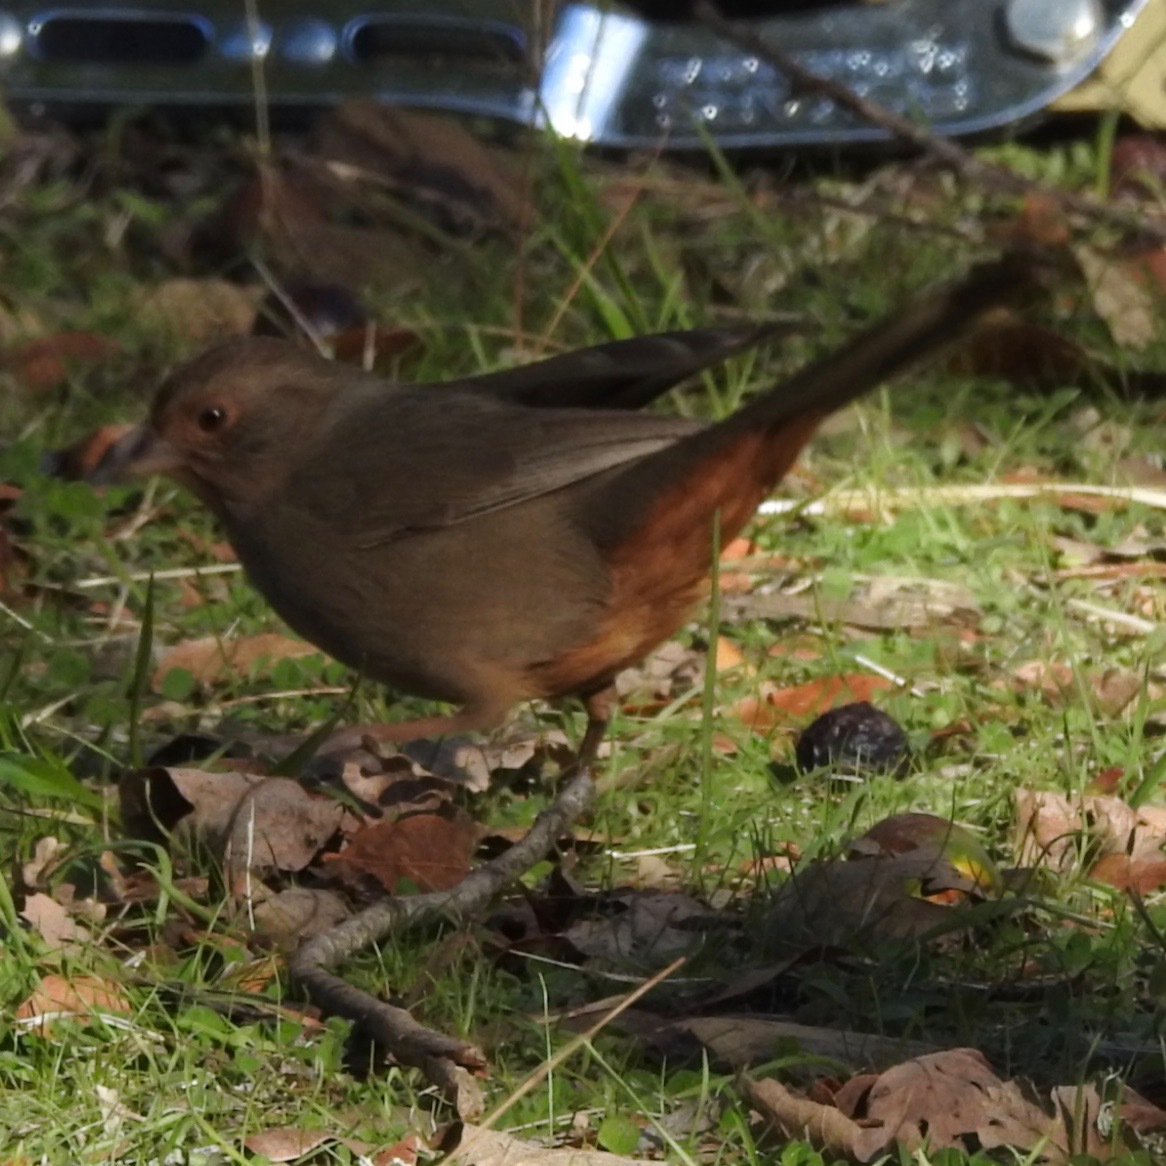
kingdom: Animalia
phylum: Chordata
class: Aves
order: Passeriformes
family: Passerellidae
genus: Melozone
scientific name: Melozone crissalis
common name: California towhee
